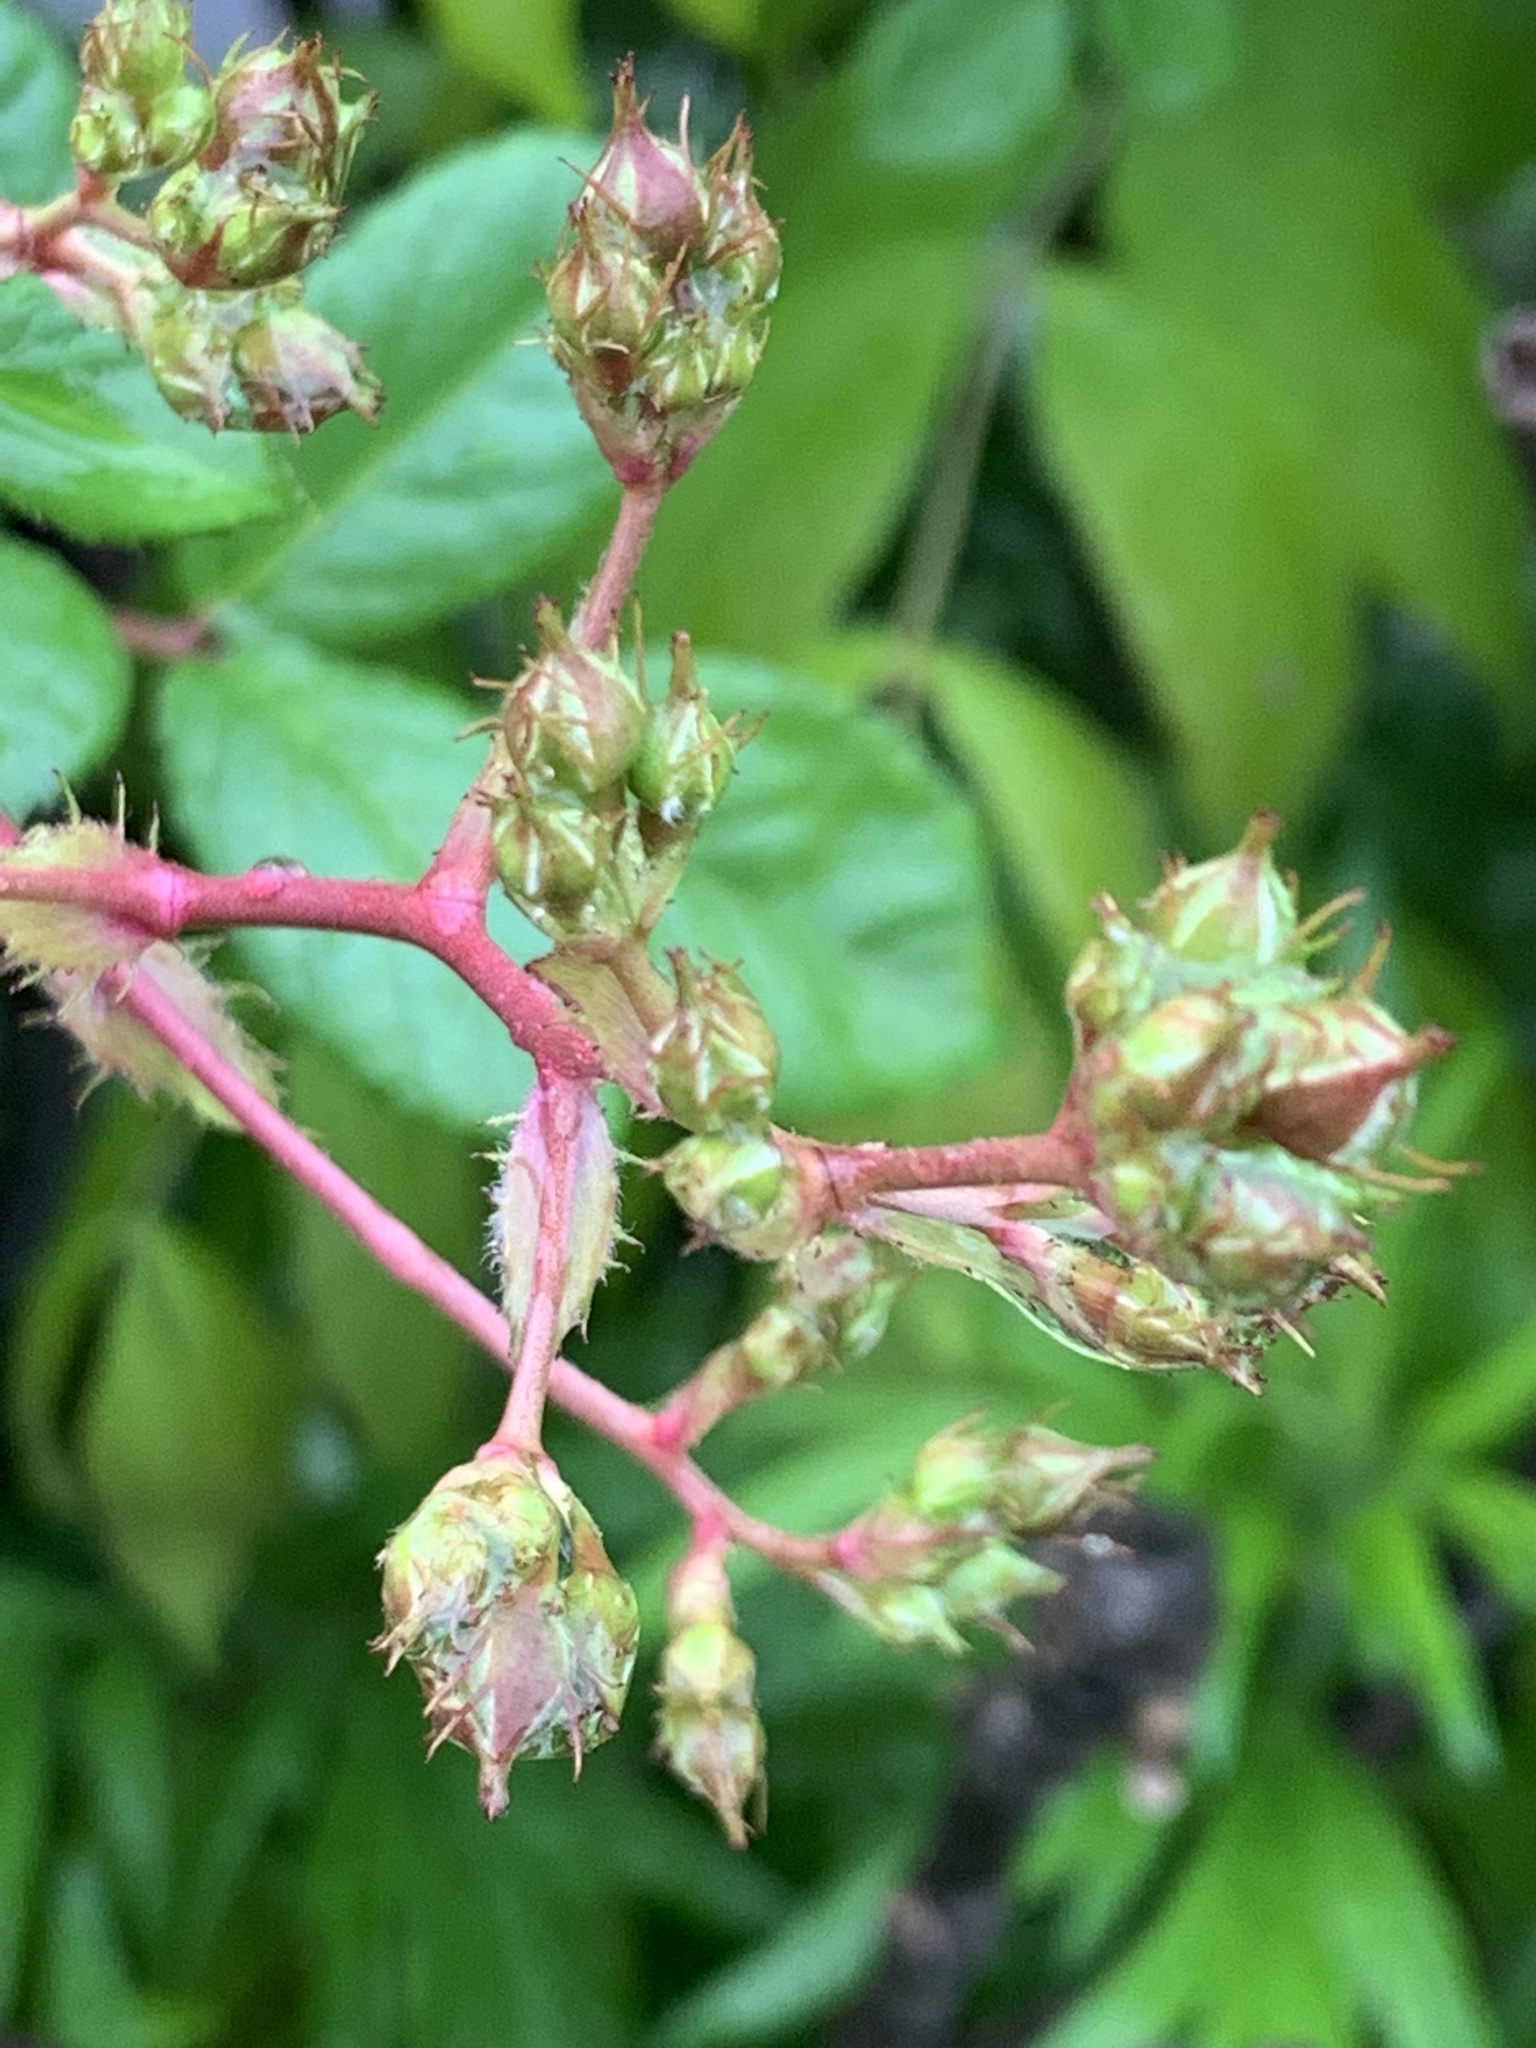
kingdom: Plantae
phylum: Tracheophyta
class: Magnoliopsida
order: Rosales
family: Rosaceae
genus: Rosa
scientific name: Rosa multiflora
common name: Multiflora rose
